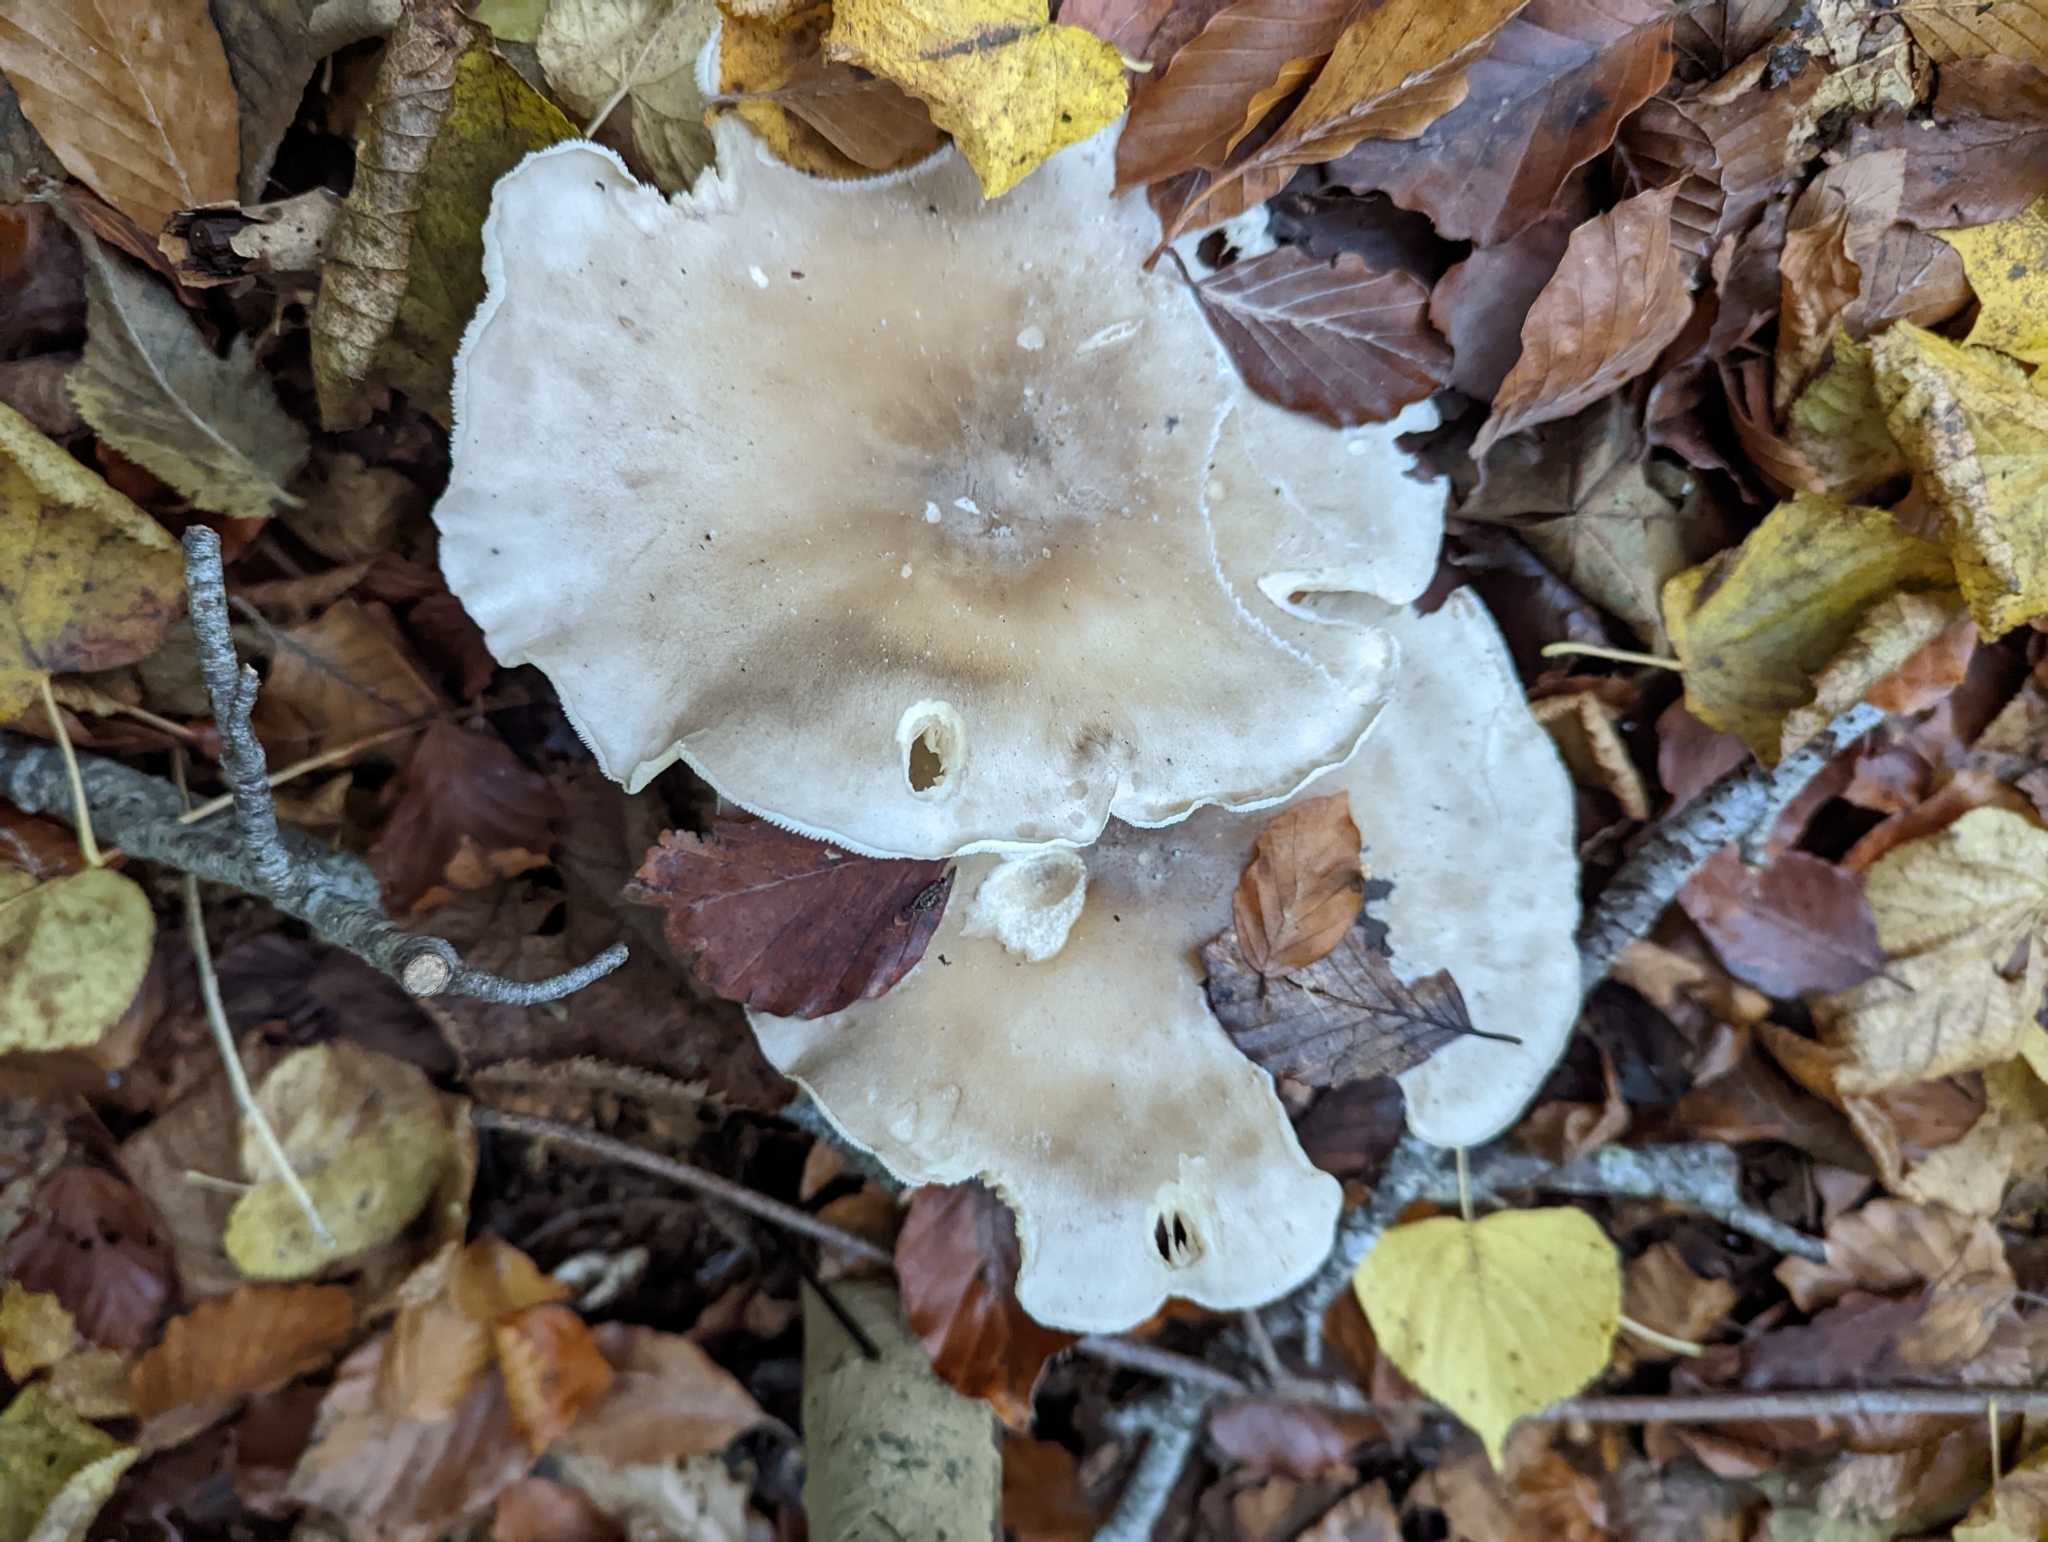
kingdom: Fungi
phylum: Basidiomycota
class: Agaricomycetes
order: Agaricales
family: Tricholomataceae
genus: Clitocybe
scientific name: Clitocybe nebularis
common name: Clouded agaric
